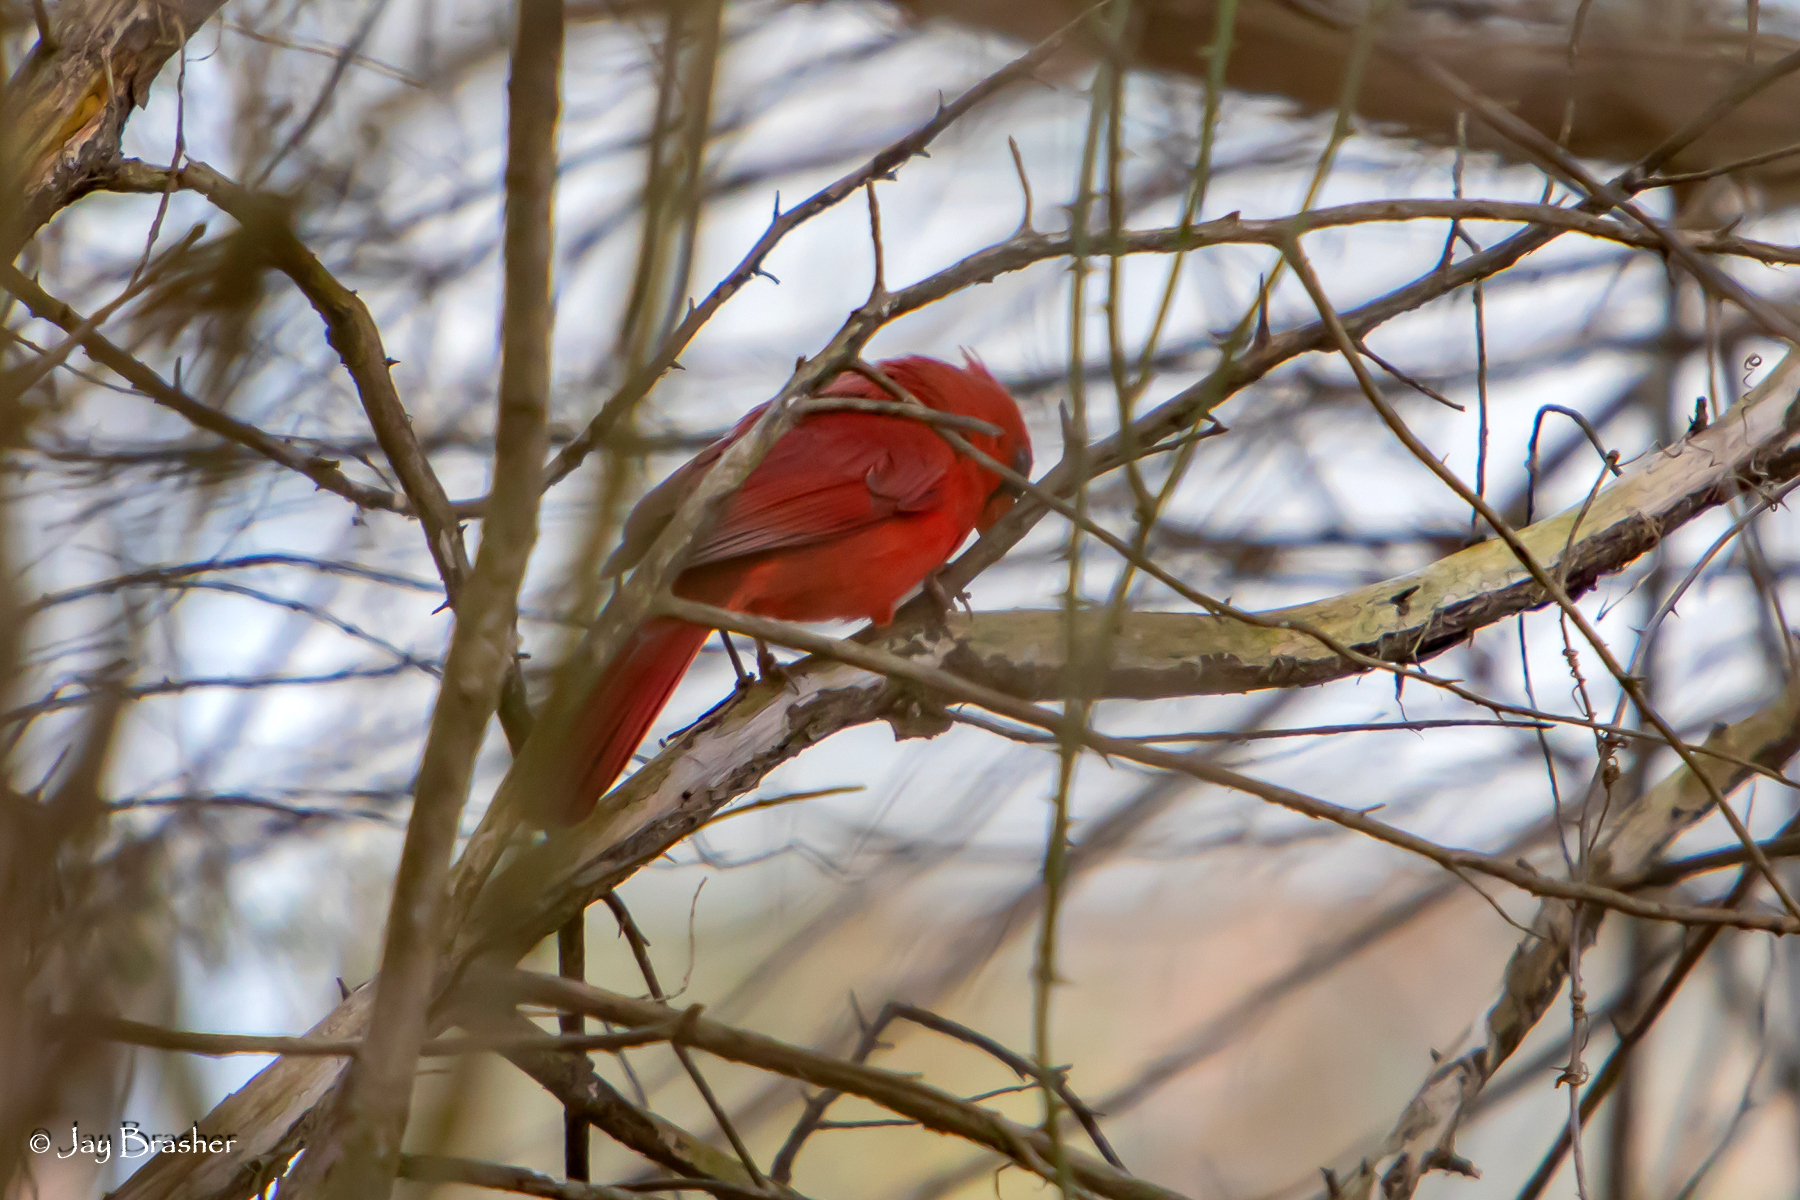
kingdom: Animalia
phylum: Chordata
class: Aves
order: Passeriformes
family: Cardinalidae
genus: Cardinalis
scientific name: Cardinalis cardinalis
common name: Northern cardinal
